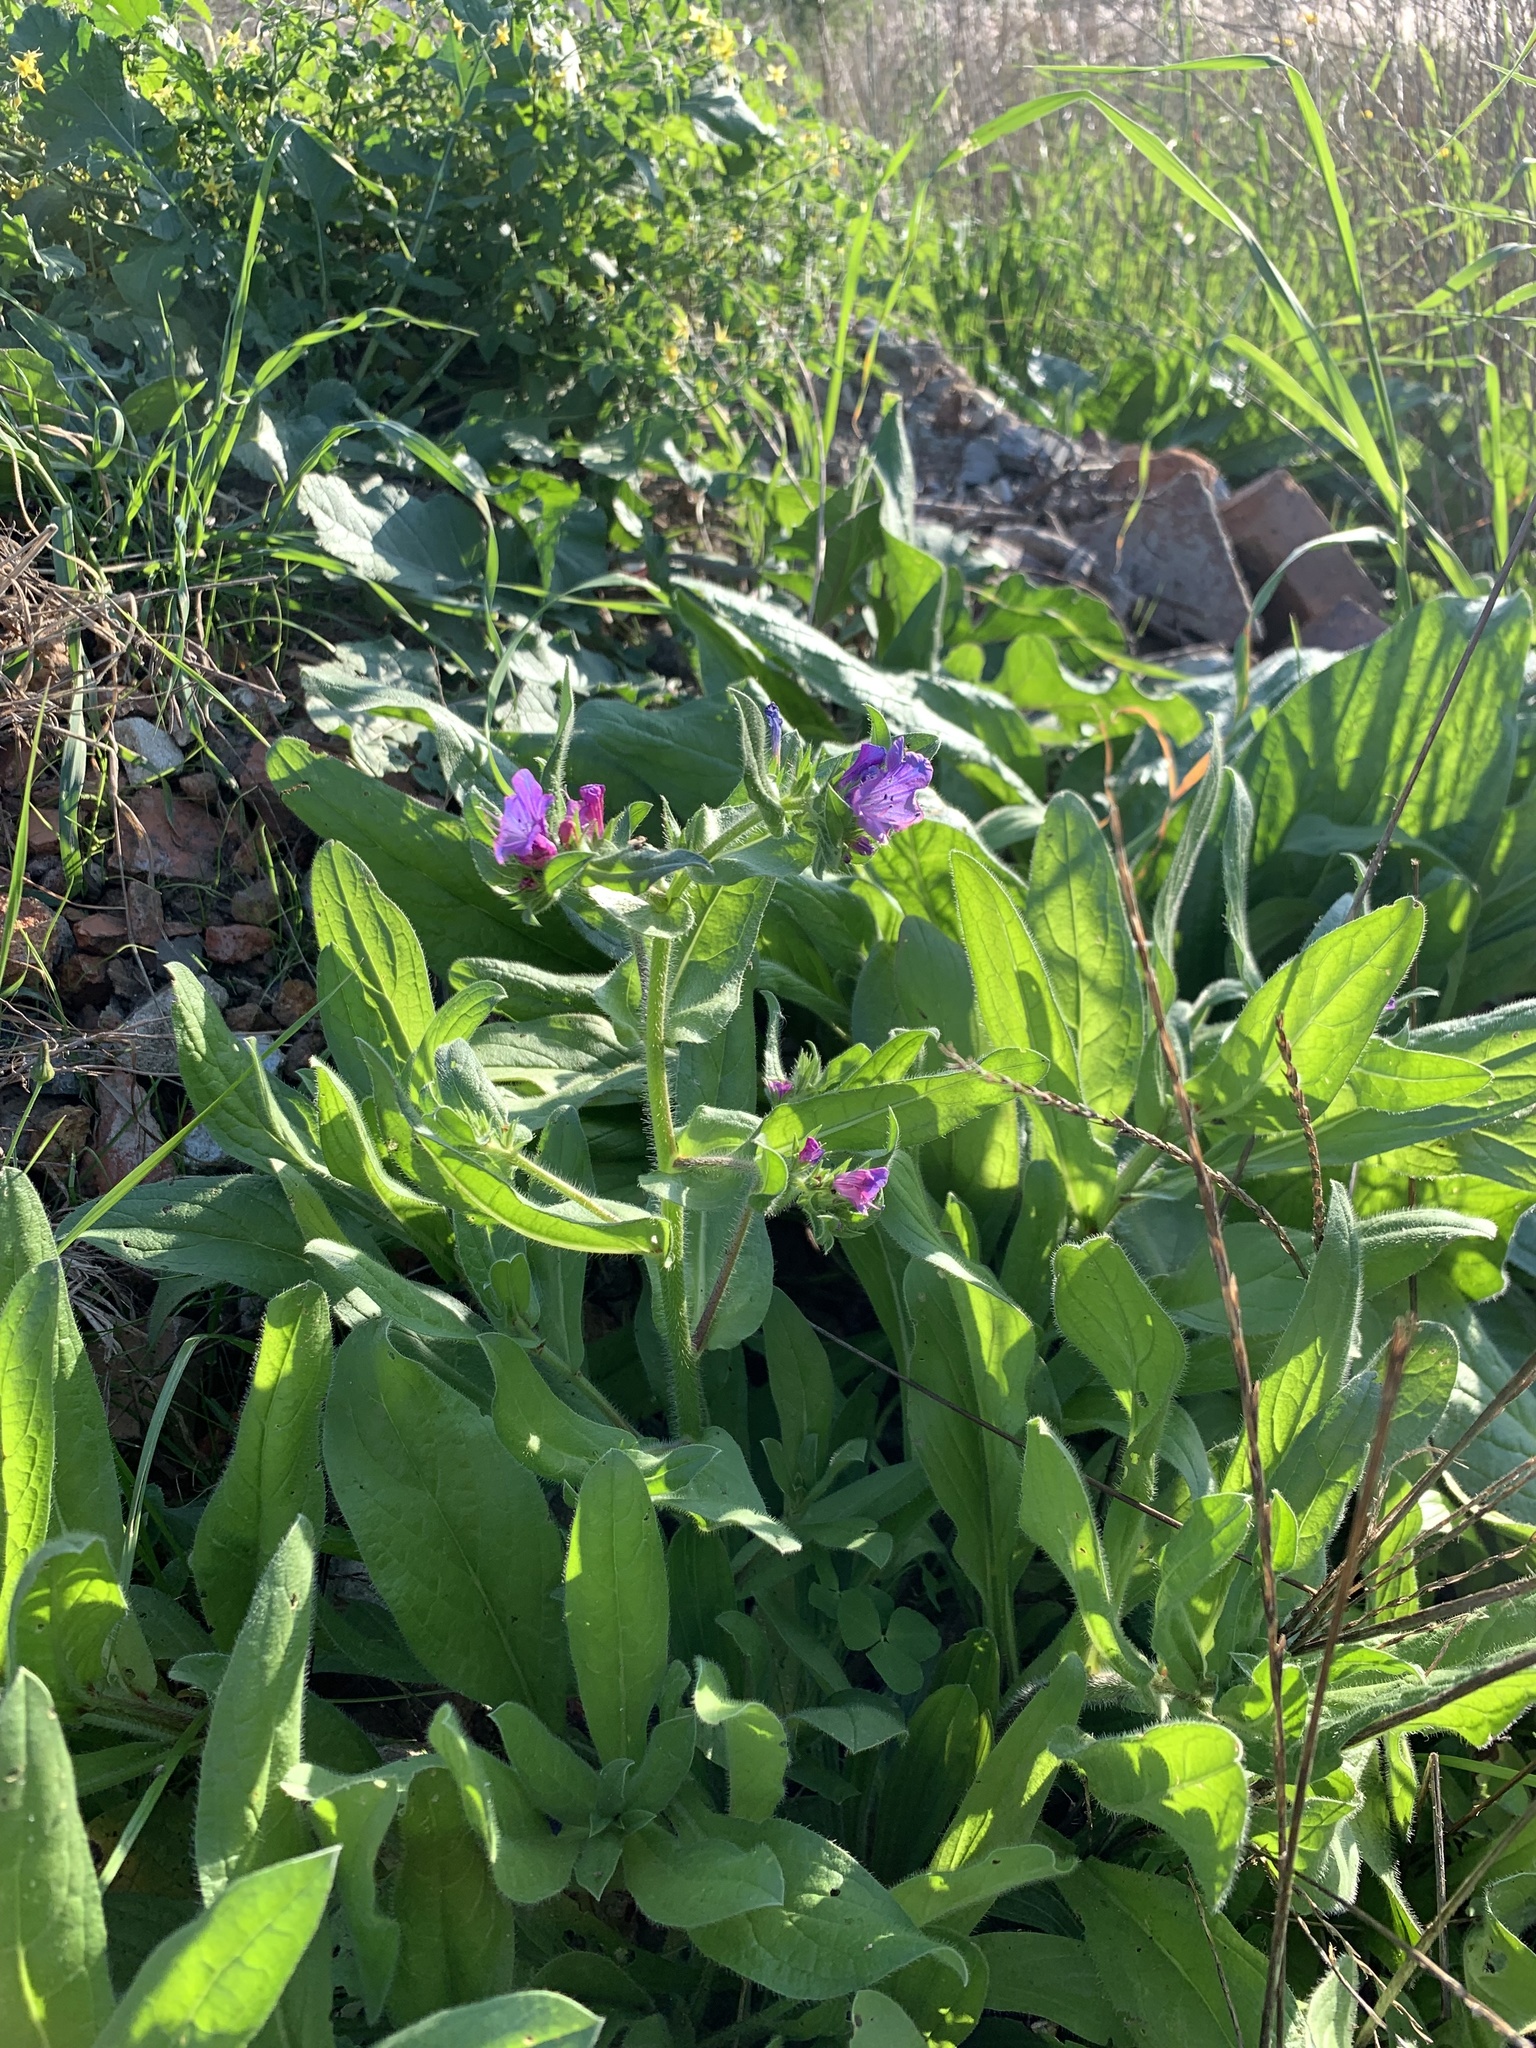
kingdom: Plantae
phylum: Tracheophyta
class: Magnoliopsida
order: Boraginales
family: Boraginaceae
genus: Echium
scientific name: Echium plantagineum
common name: Purple viper's-bugloss
